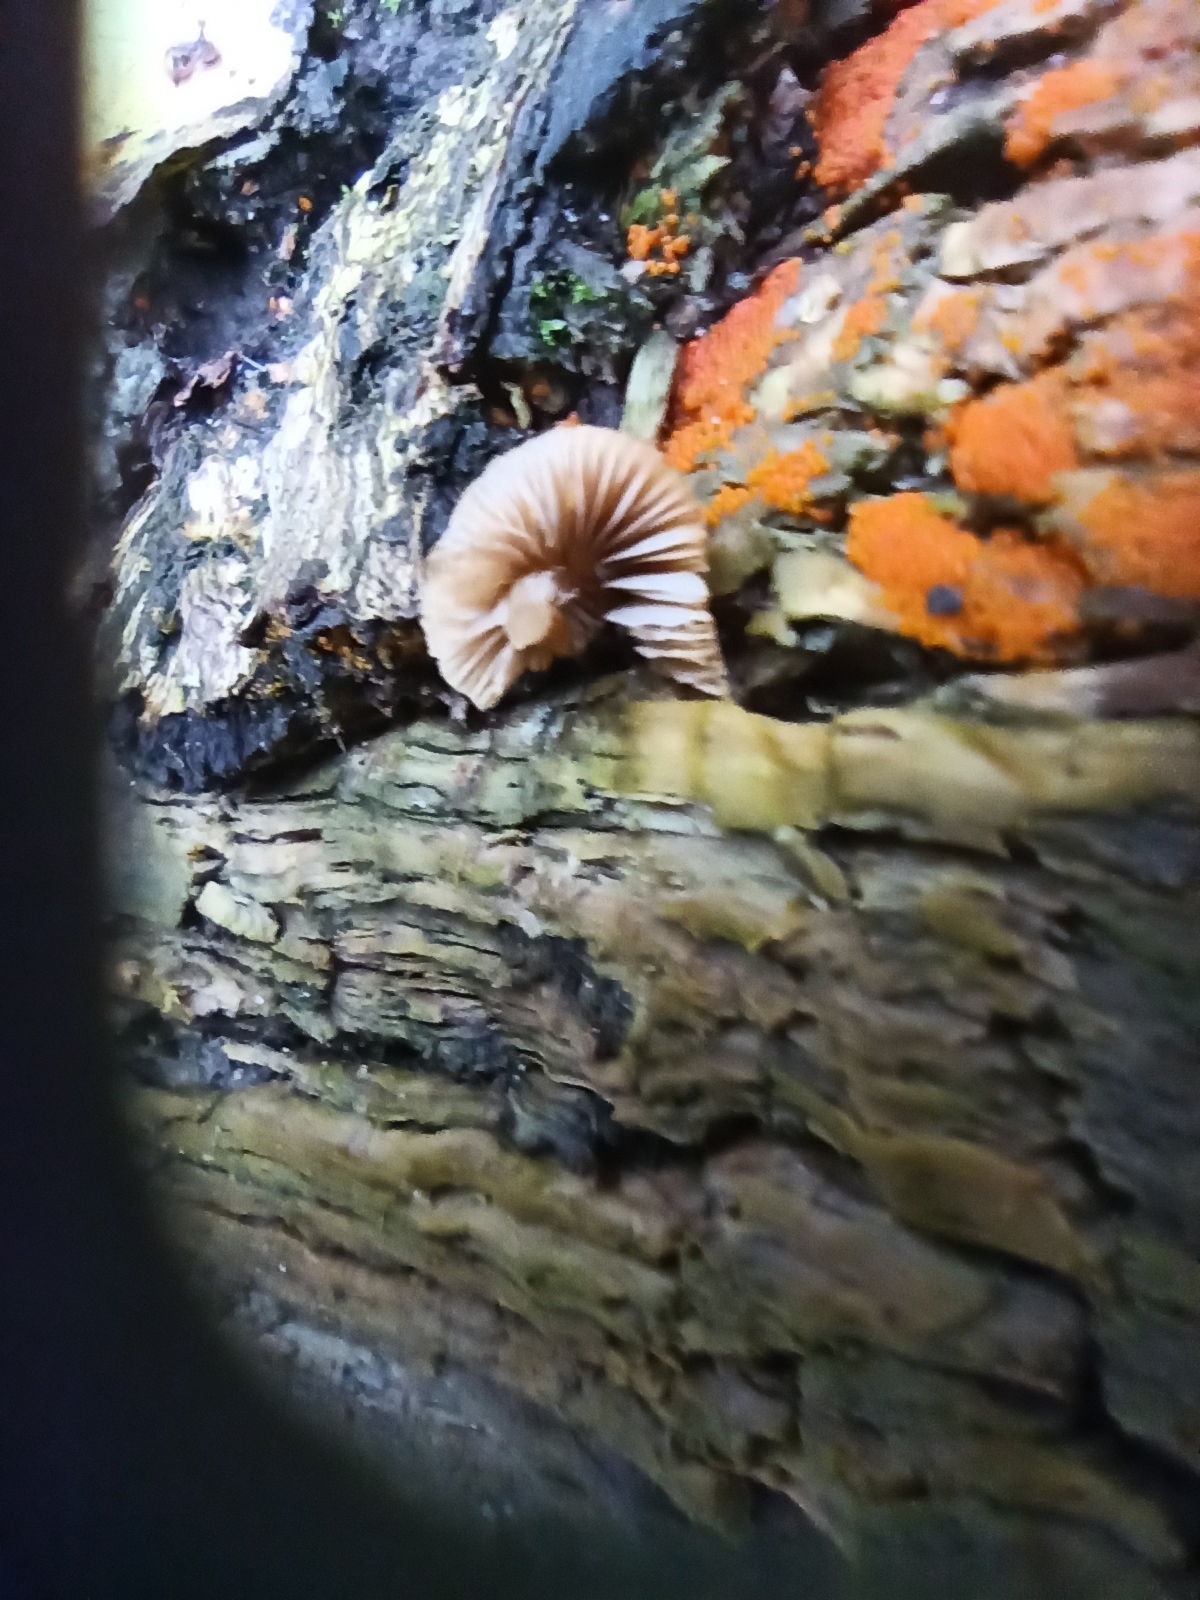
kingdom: Fungi
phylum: Basidiomycota
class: Agaricomycetes
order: Agaricales
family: Psathyrellaceae
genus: Coprinellus
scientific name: Coprinellus disseminatus
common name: Fairies' bonnets
